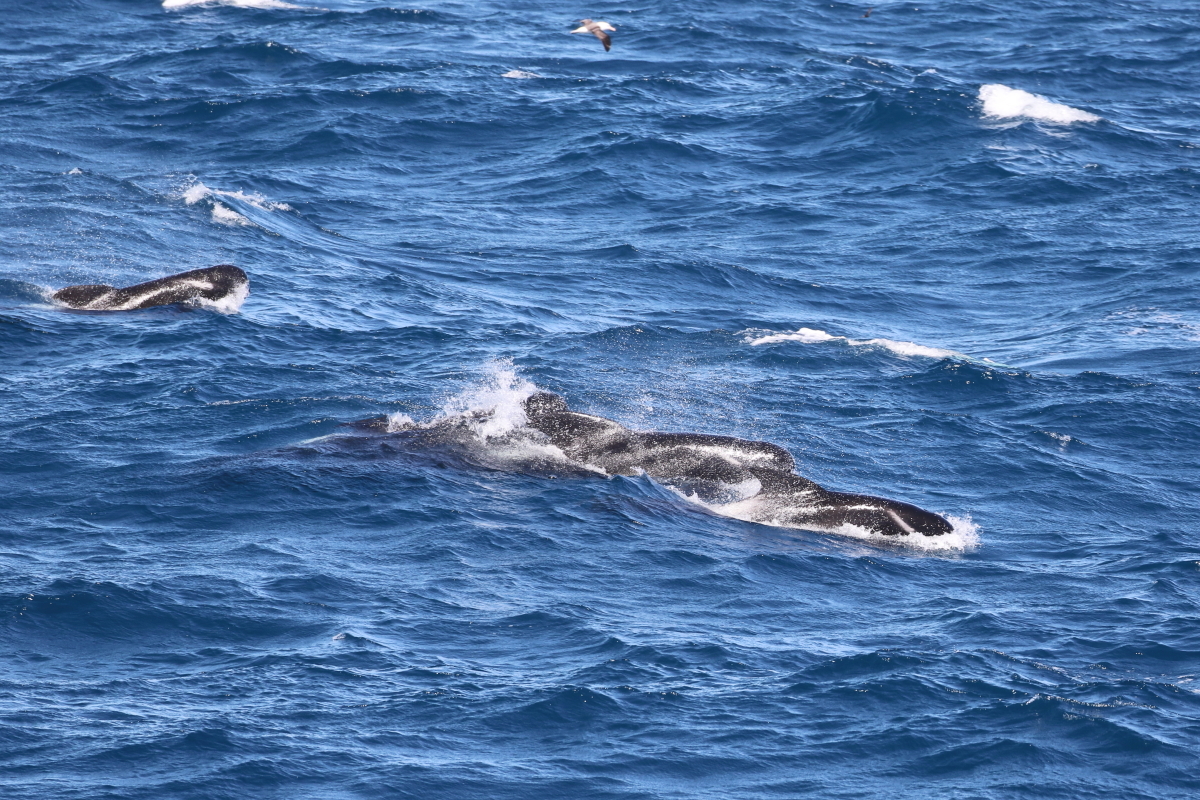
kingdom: Animalia
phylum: Chordata
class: Mammalia
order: Cetacea
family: Delphinidae
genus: Globicephala
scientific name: Globicephala melas
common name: Long-finned pilot whale
